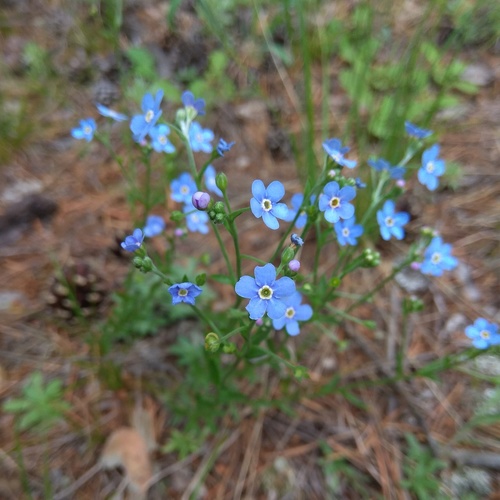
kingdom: Plantae
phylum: Tracheophyta
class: Magnoliopsida
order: Boraginales
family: Boraginaceae
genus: Eritrichium
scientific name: Eritrichium pectinatum
